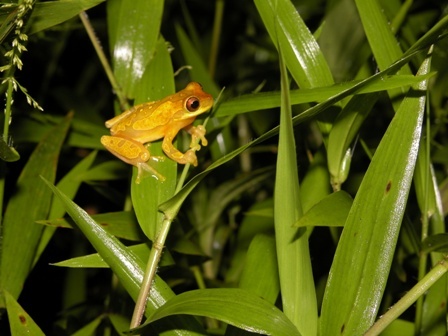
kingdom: Animalia
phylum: Chordata
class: Amphibia
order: Anura
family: Hylidae
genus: Dendropsophus
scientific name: Dendropsophus ebraccatus
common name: Hourglass treefrog
